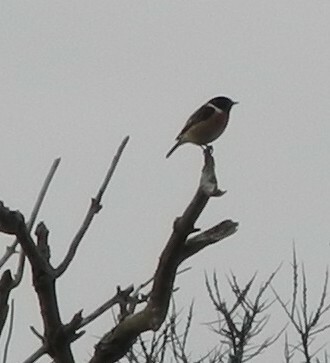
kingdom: Animalia
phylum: Chordata
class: Aves
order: Passeriformes
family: Muscicapidae
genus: Saxicola
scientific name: Saxicola rubicola
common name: European stonechat
